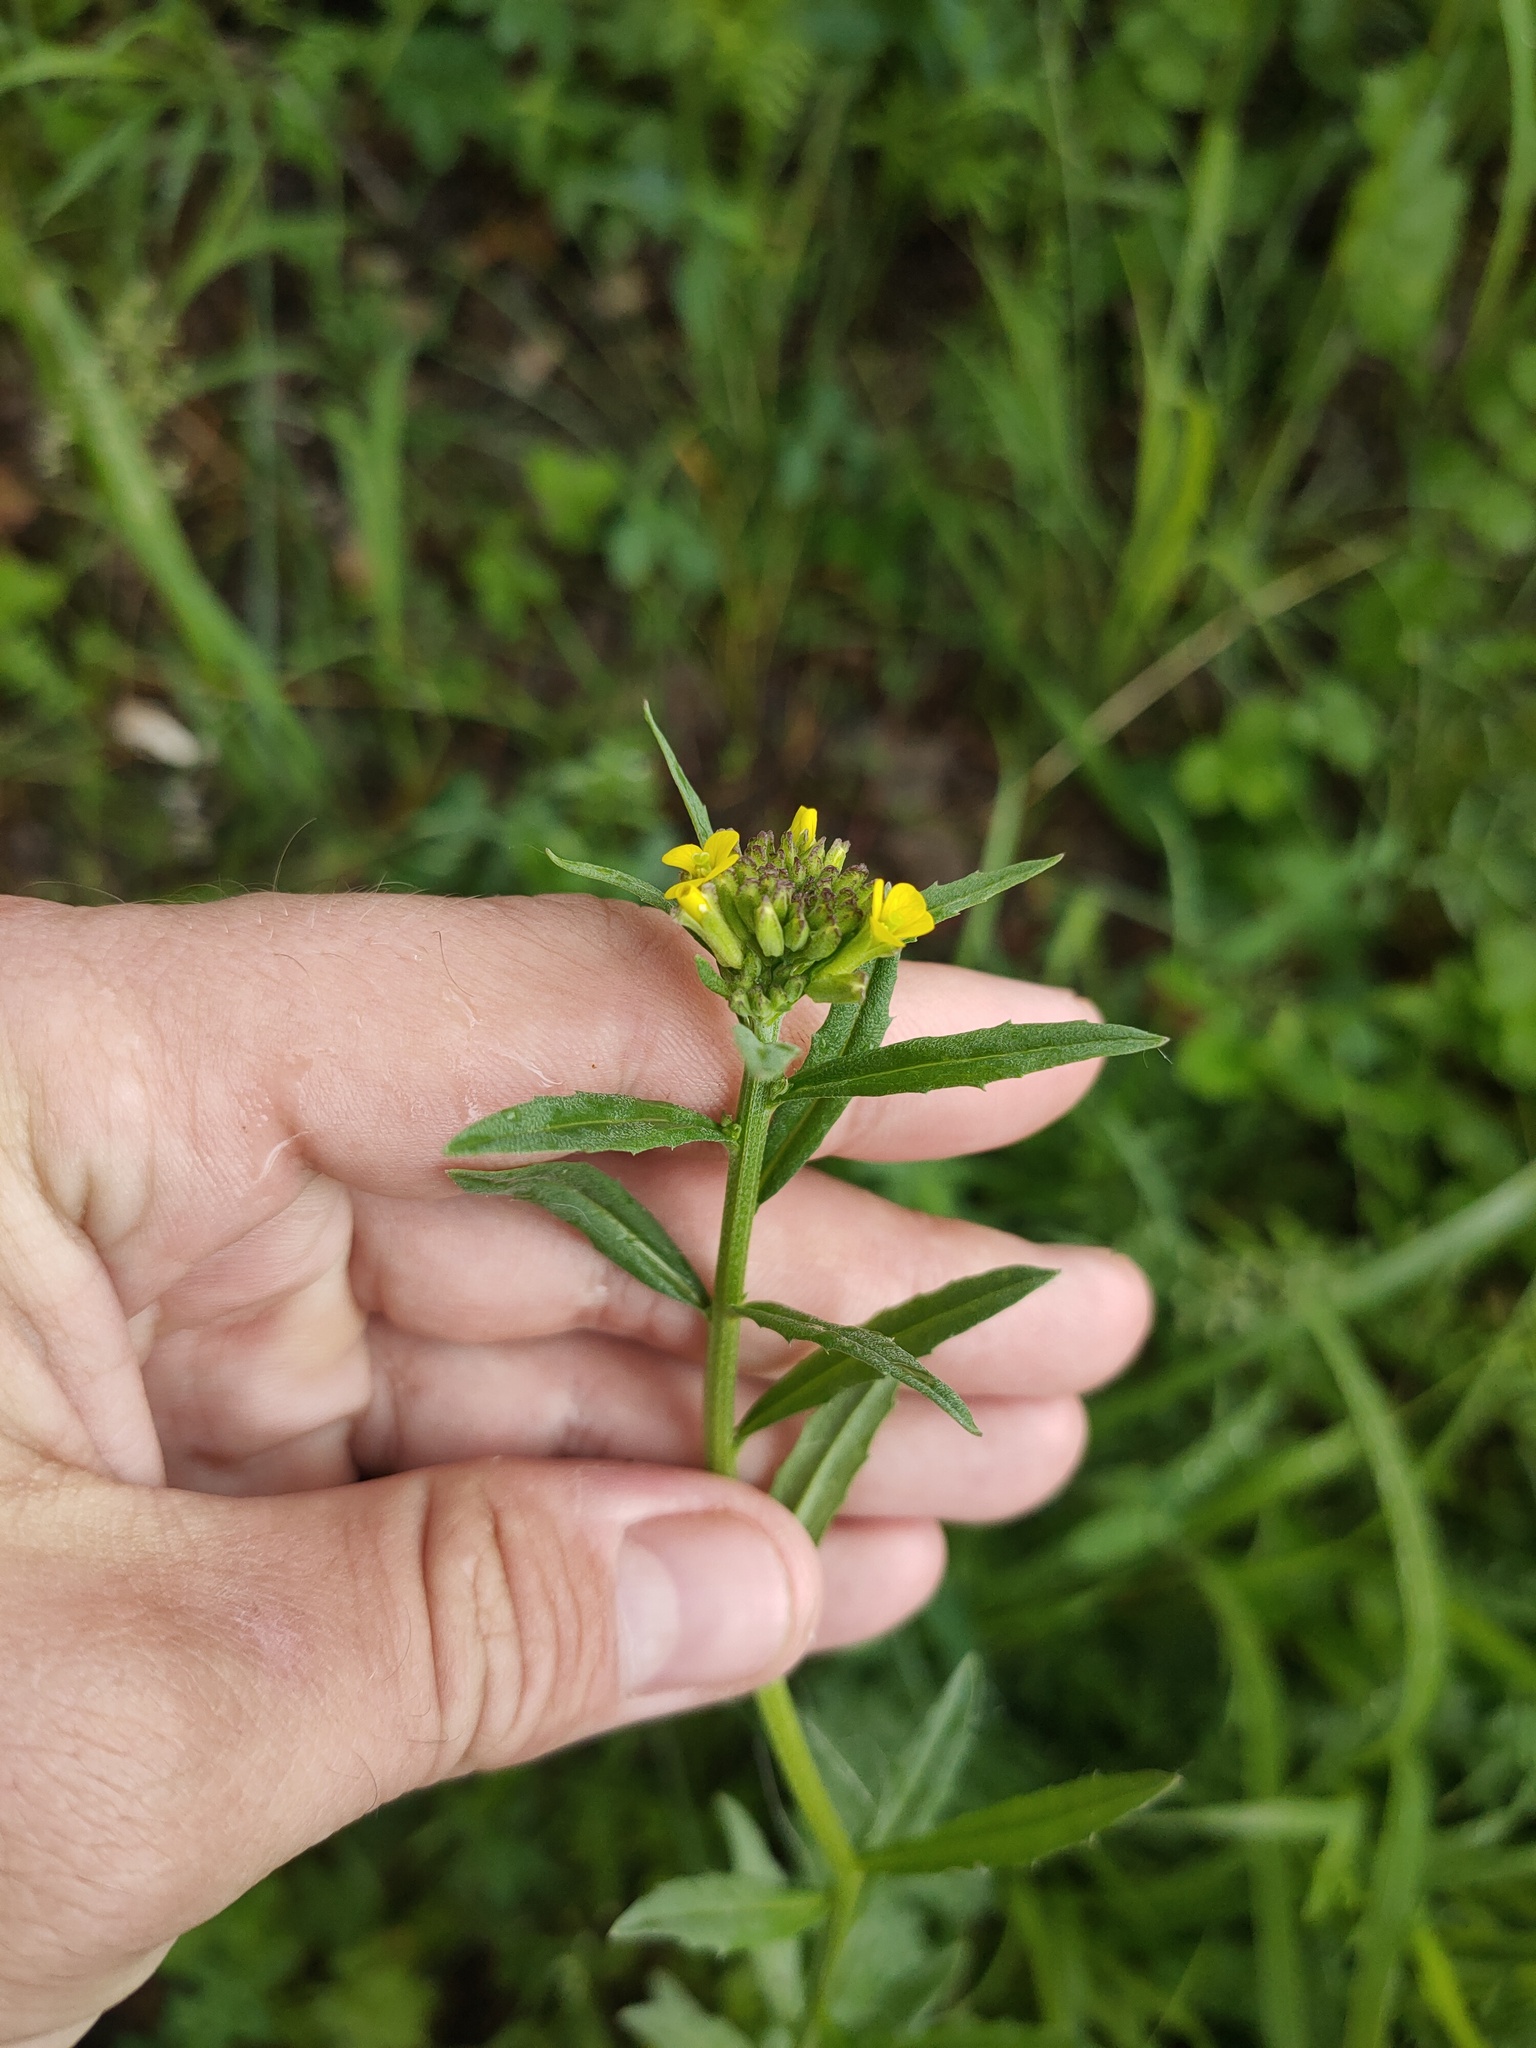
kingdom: Plantae
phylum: Tracheophyta
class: Magnoliopsida
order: Brassicales
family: Brassicaceae
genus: Erysimum
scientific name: Erysimum cheiranthoides
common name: Treacle mustard
